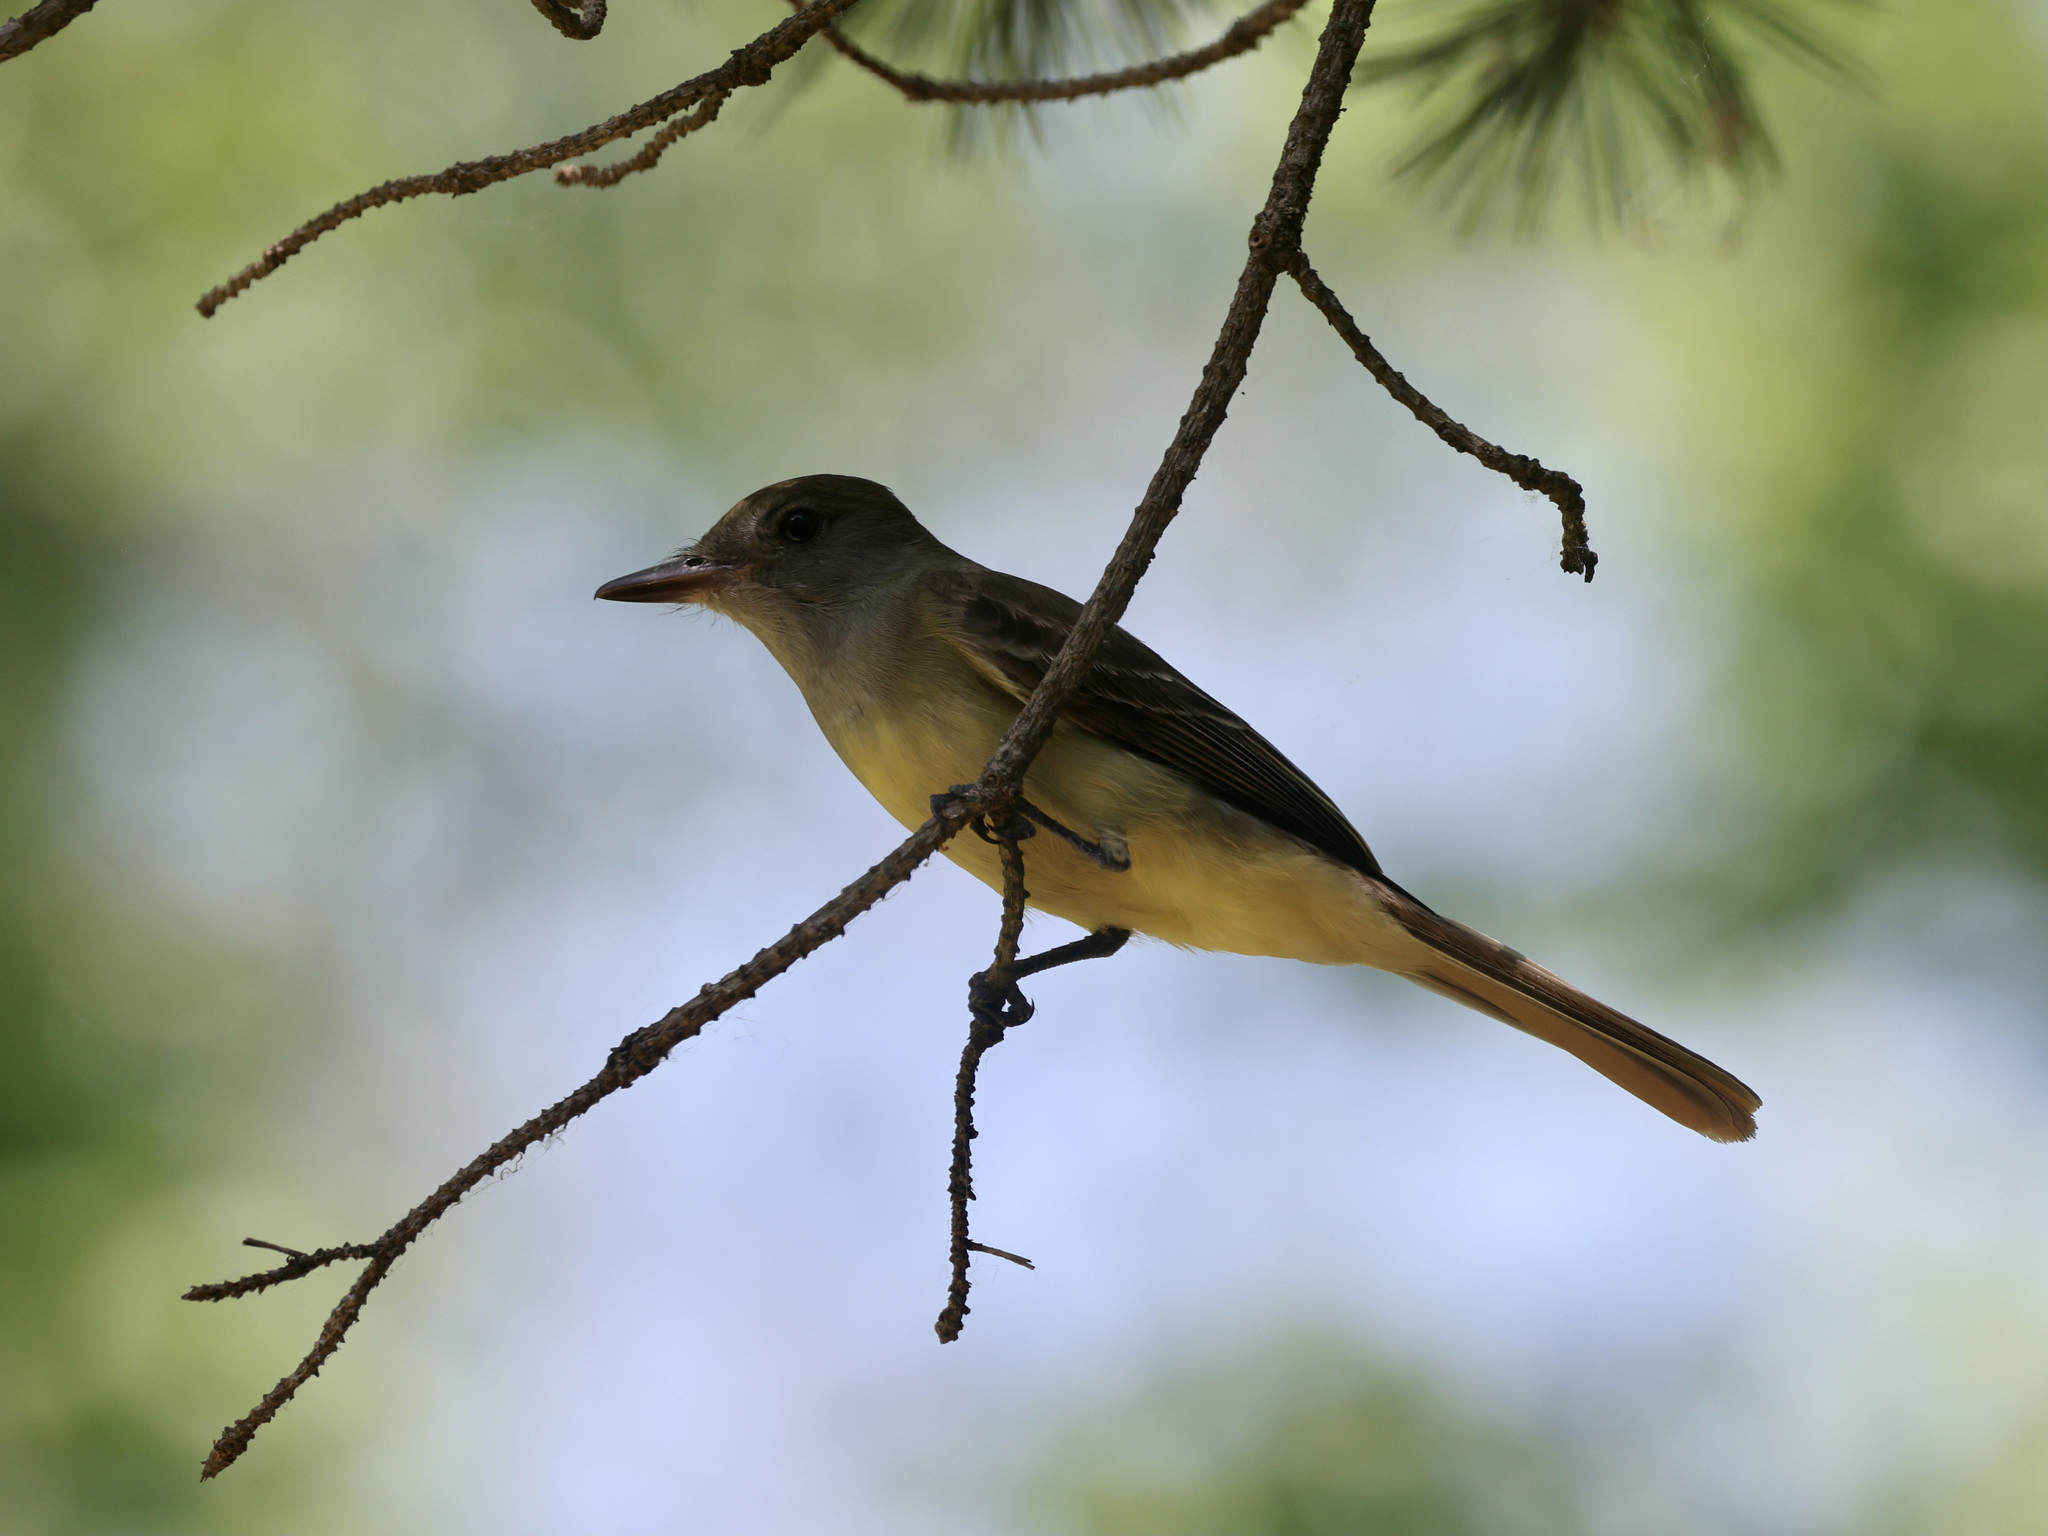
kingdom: Animalia
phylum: Chordata
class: Aves
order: Passeriformes
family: Tyrannidae
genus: Myiarchus
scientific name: Myiarchus crinitus
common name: Great crested flycatcher
